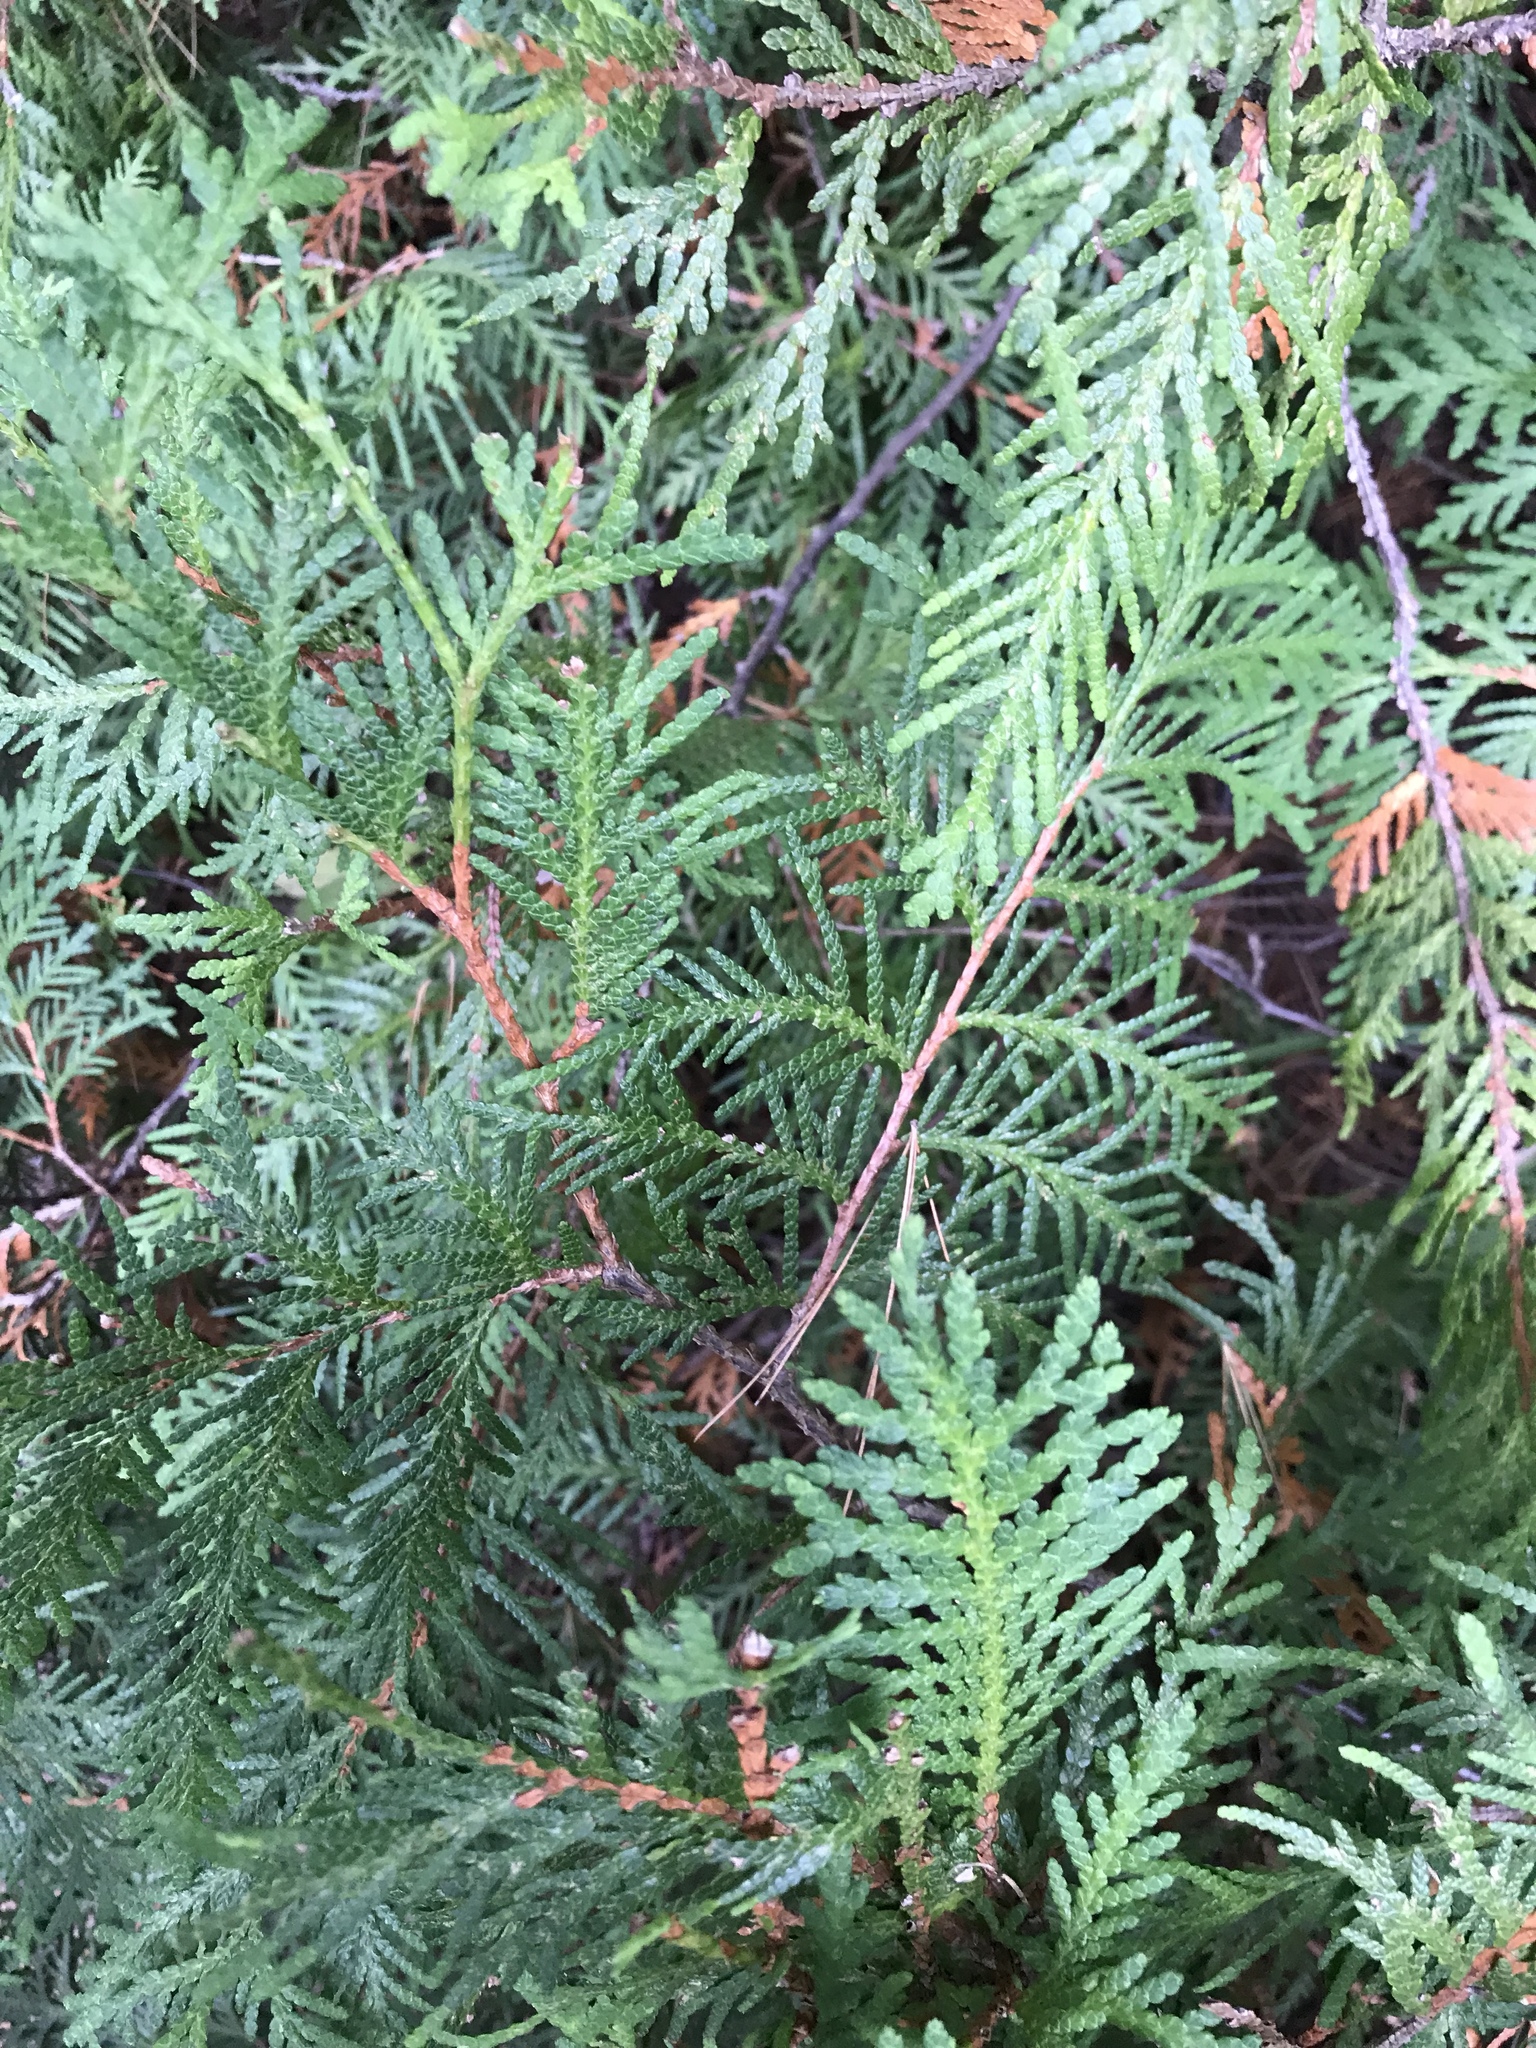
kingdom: Plantae
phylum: Tracheophyta
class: Pinopsida
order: Pinales
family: Cupressaceae
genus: Thuja
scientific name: Thuja occidentalis
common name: Northern white-cedar
